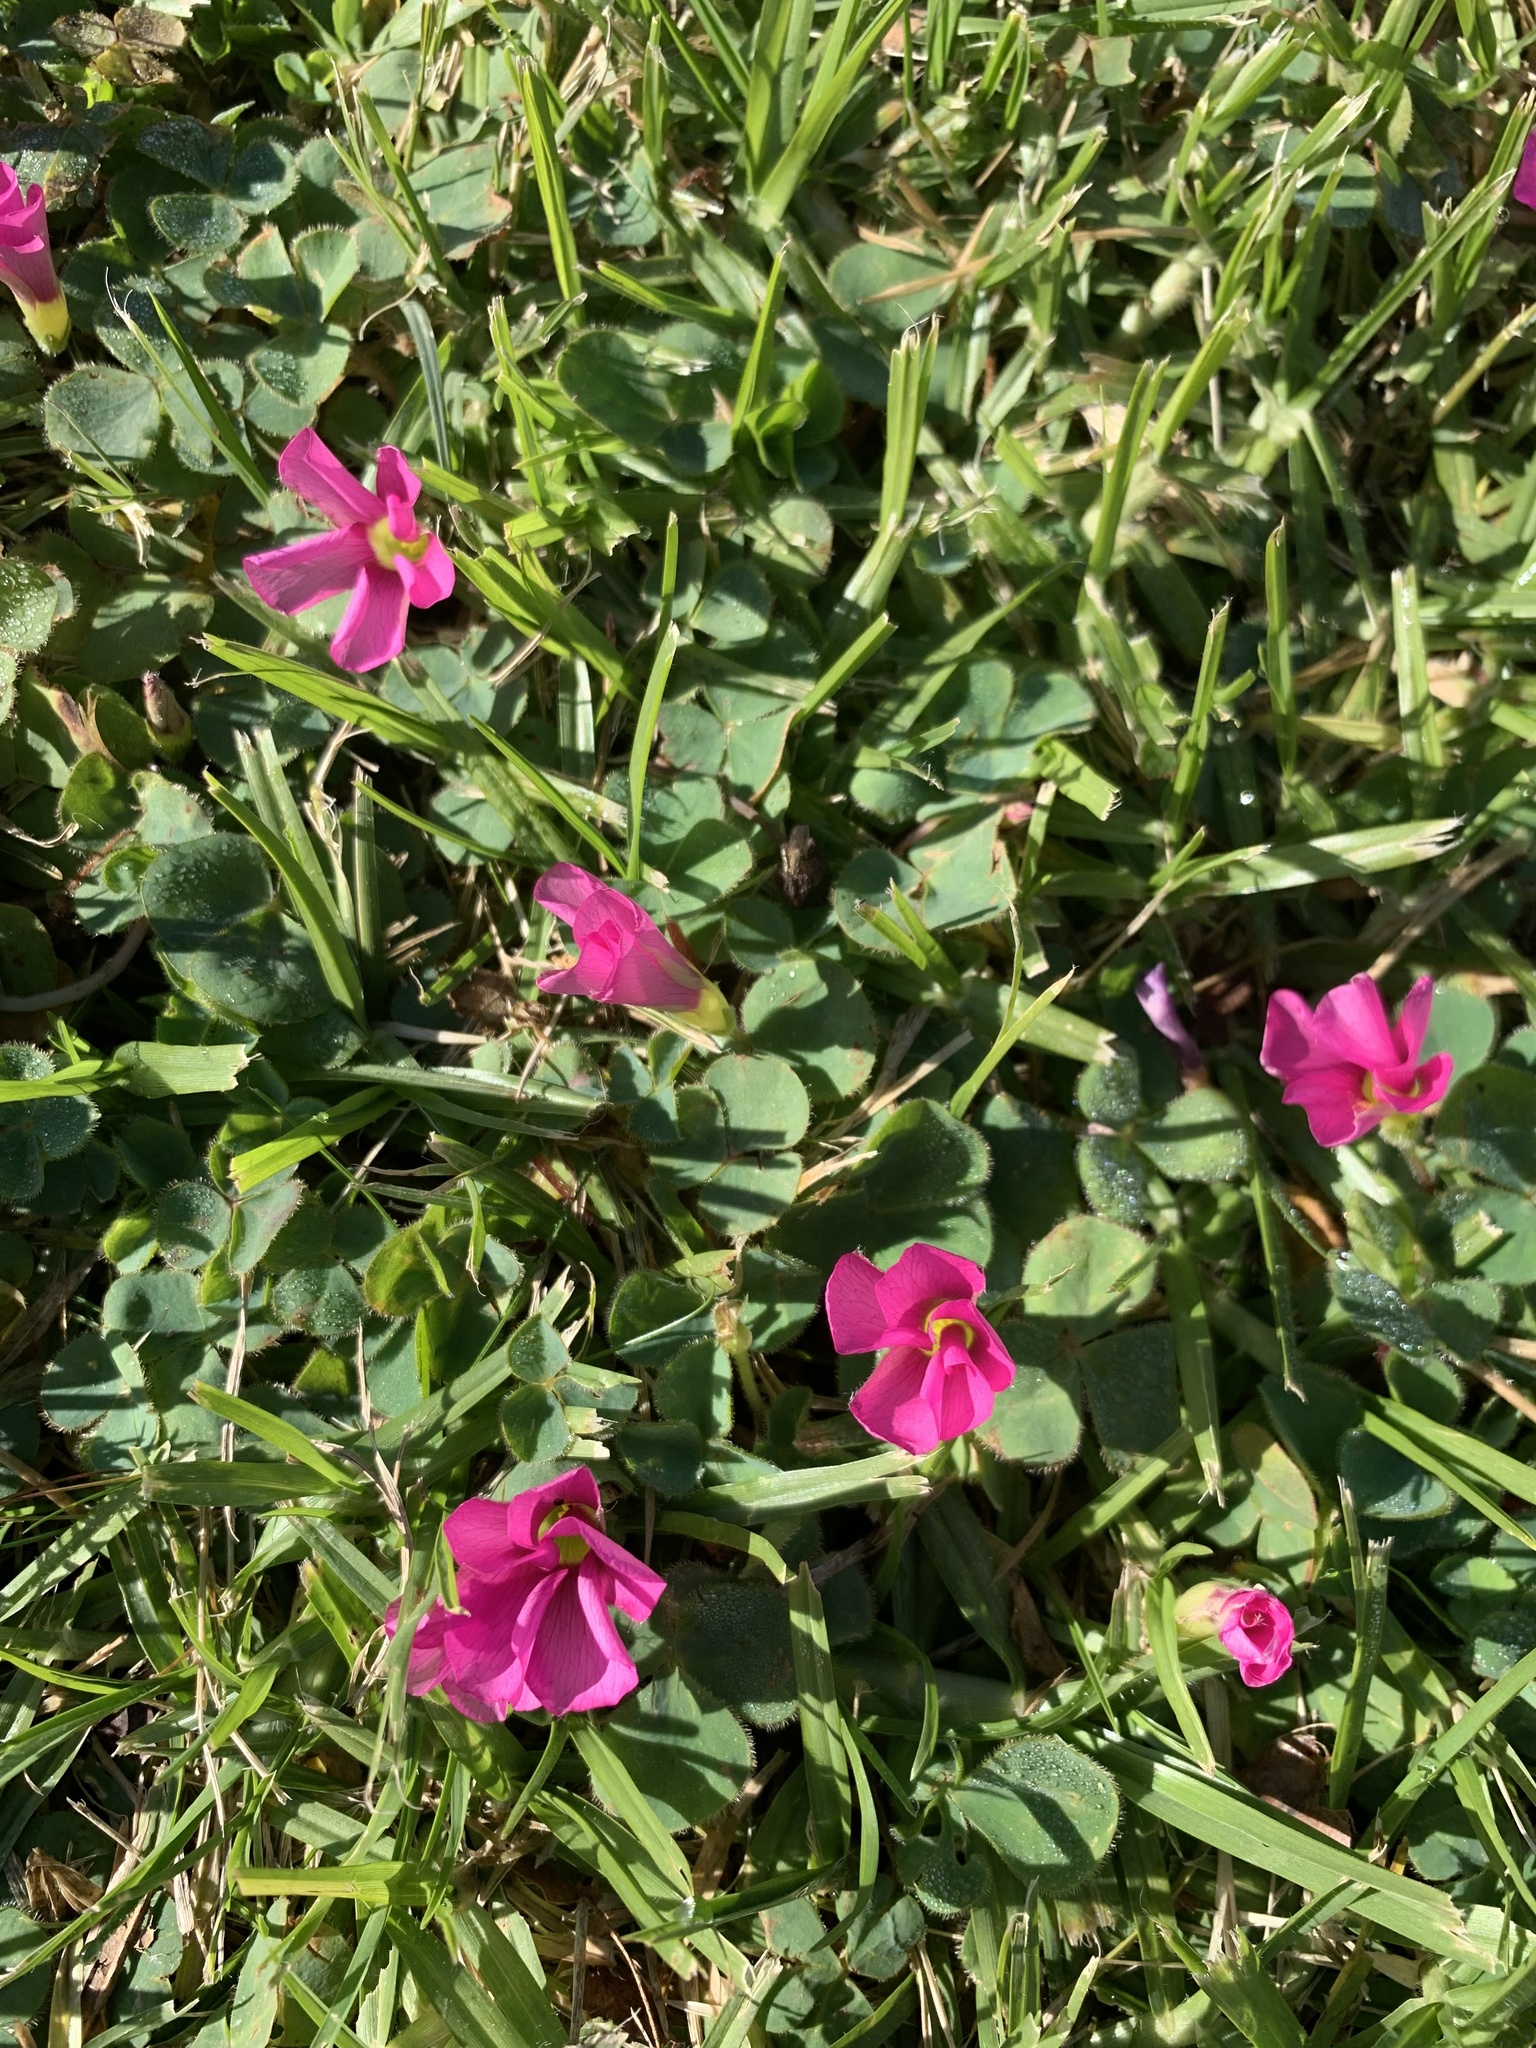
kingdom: Plantae
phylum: Tracheophyta
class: Magnoliopsida
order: Oxalidales
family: Oxalidaceae
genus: Oxalis
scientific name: Oxalis purpurea
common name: Purple woodsorrel
